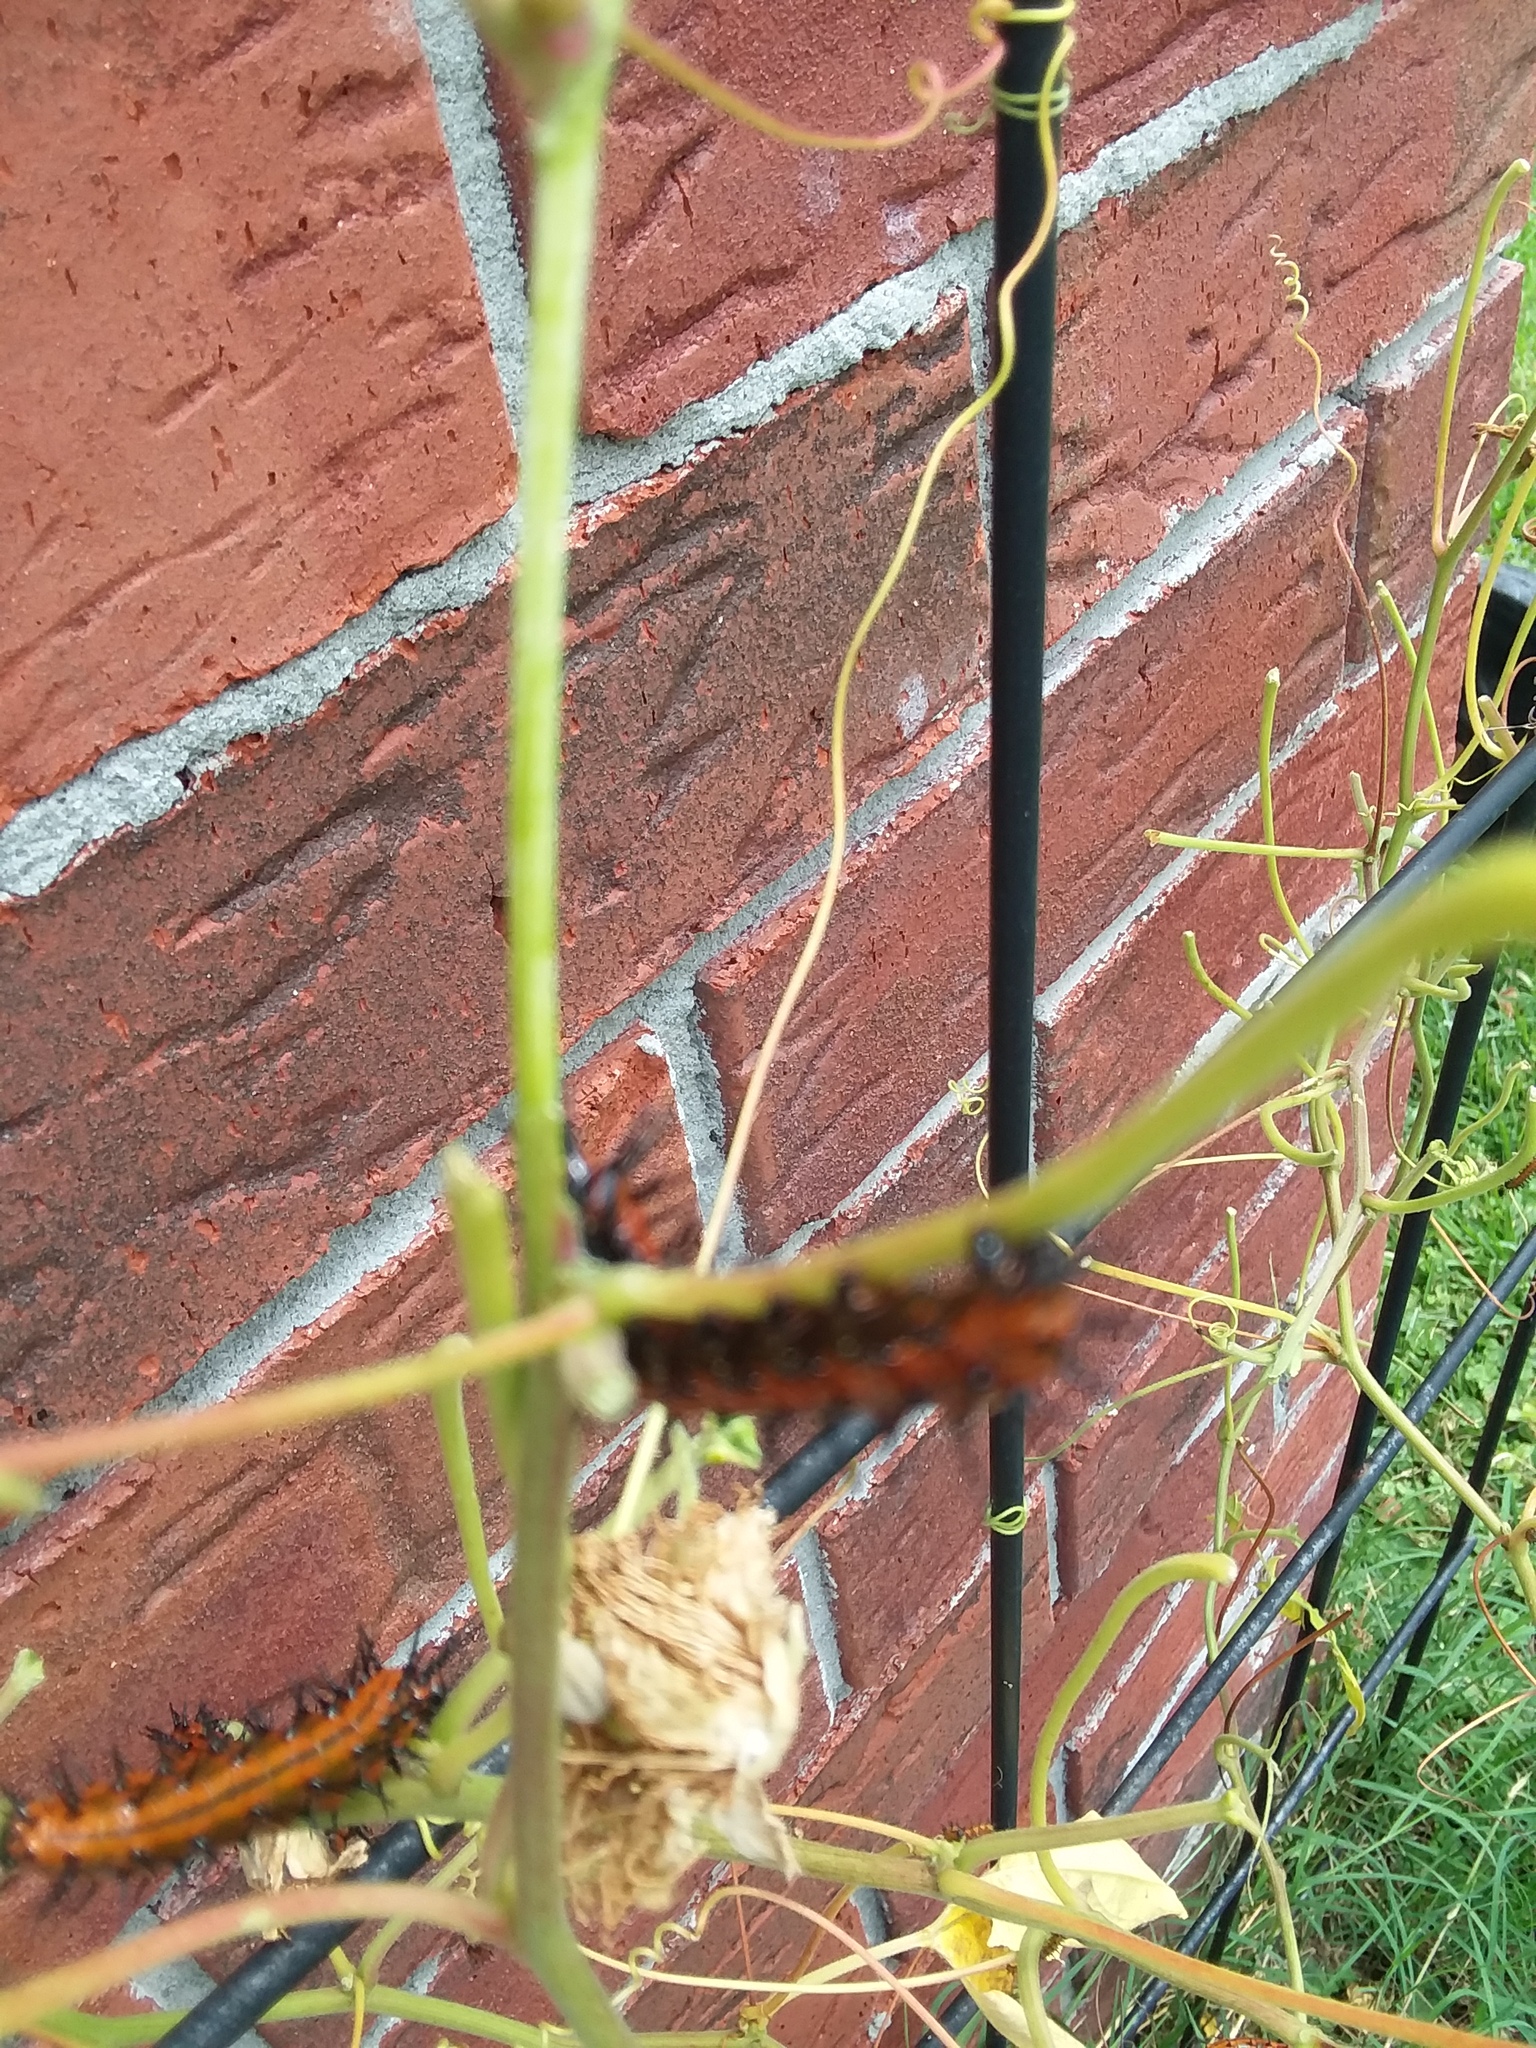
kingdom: Animalia
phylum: Arthropoda
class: Insecta
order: Lepidoptera
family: Nymphalidae
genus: Dione
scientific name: Dione vanillae
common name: Gulf fritillary
